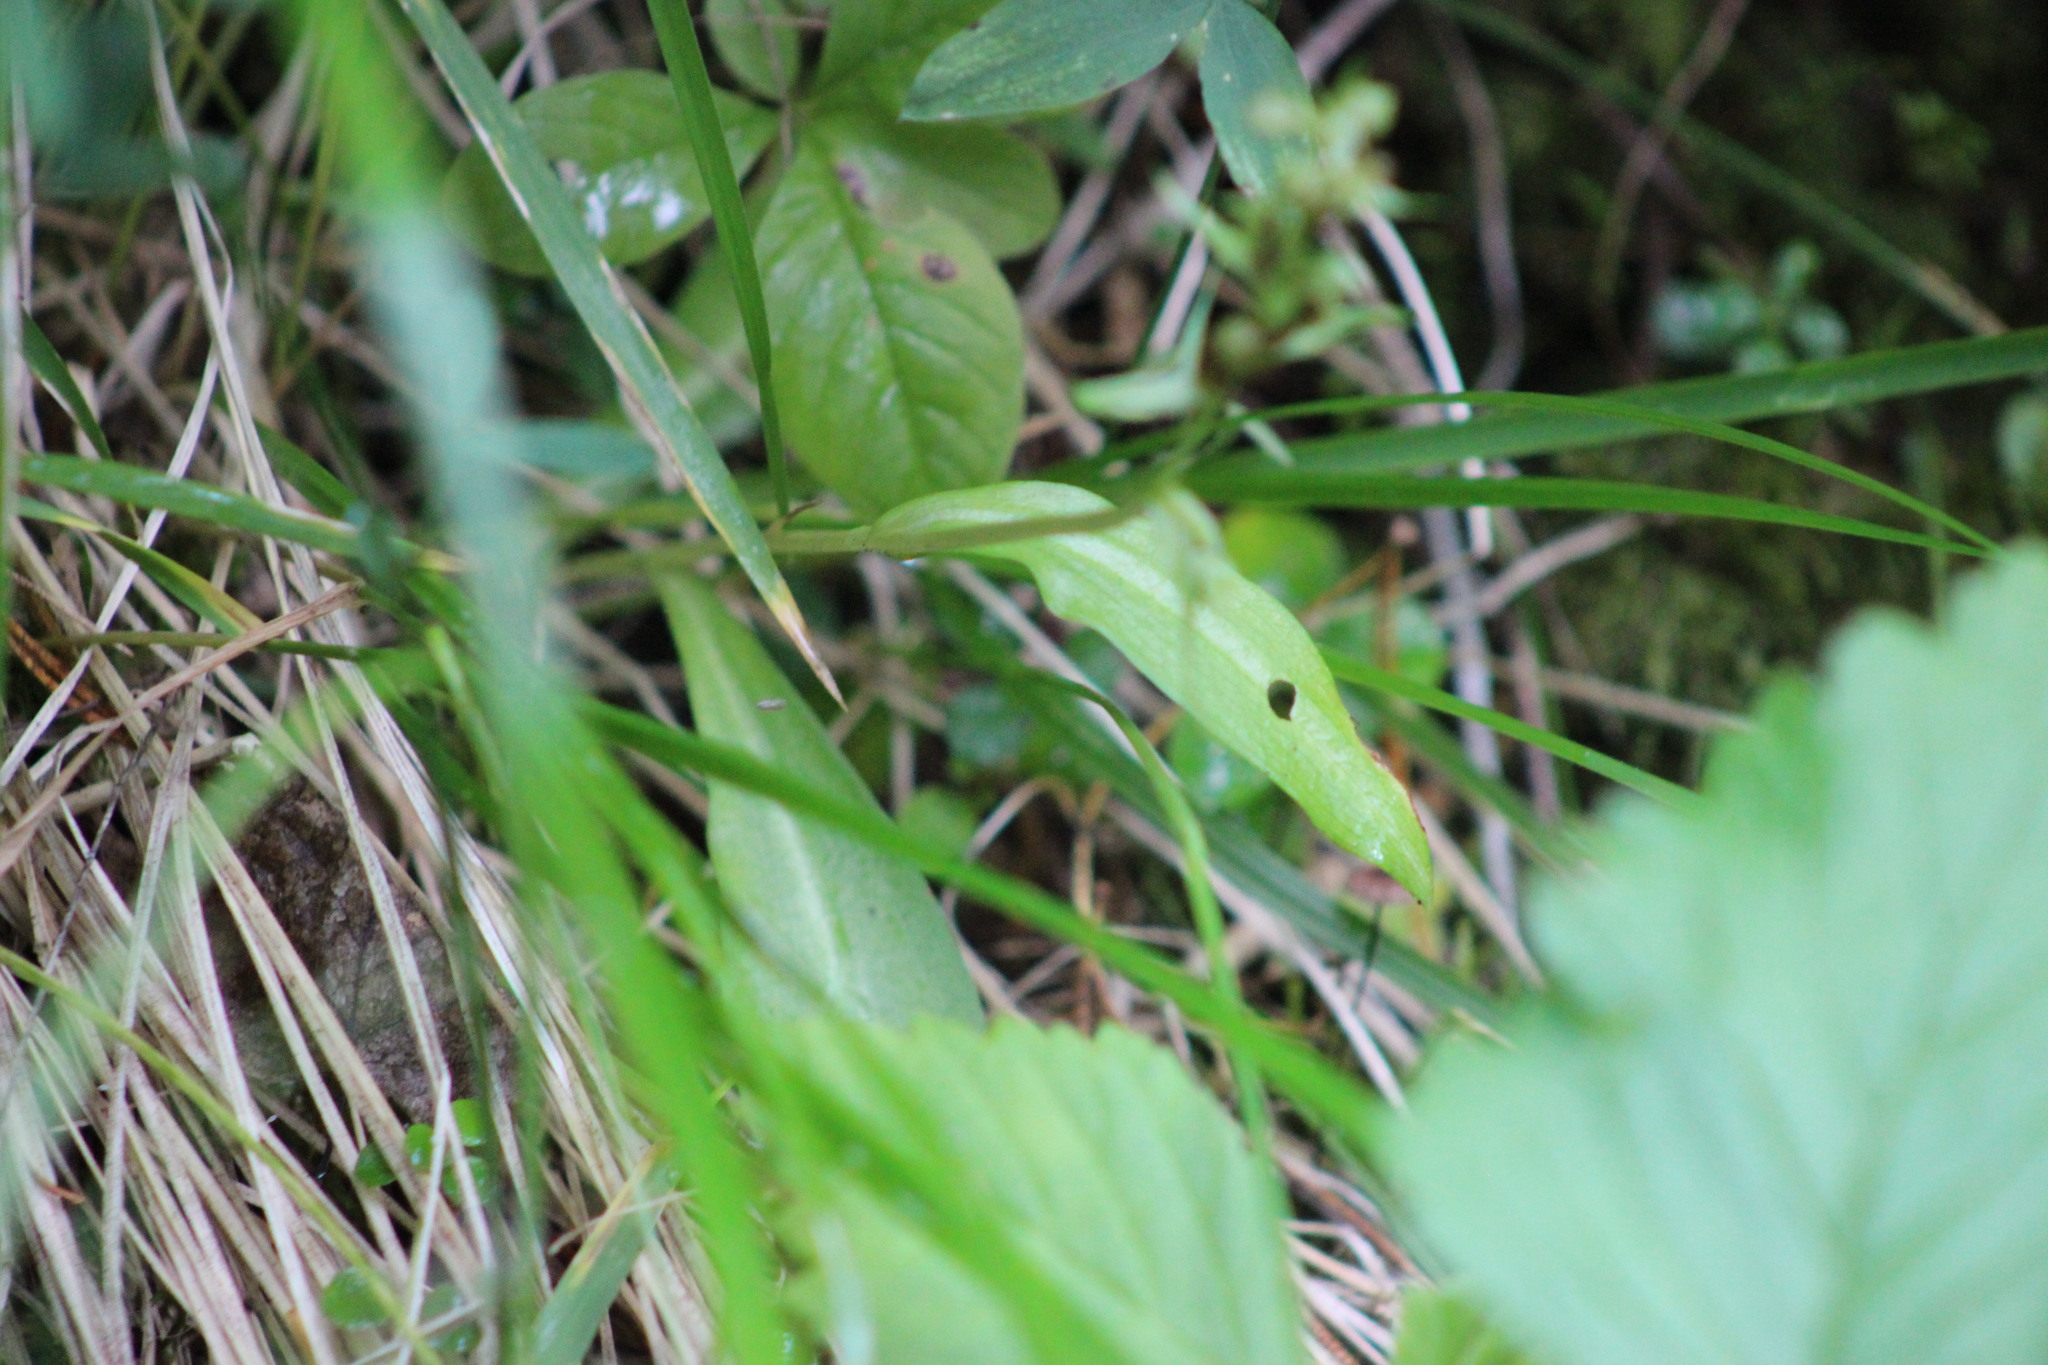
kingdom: Plantae
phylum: Tracheophyta
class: Liliopsida
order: Asparagales
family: Orchidaceae
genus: Dactylorhiza
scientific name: Dactylorhiza viridis
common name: Longbract frog orchid
